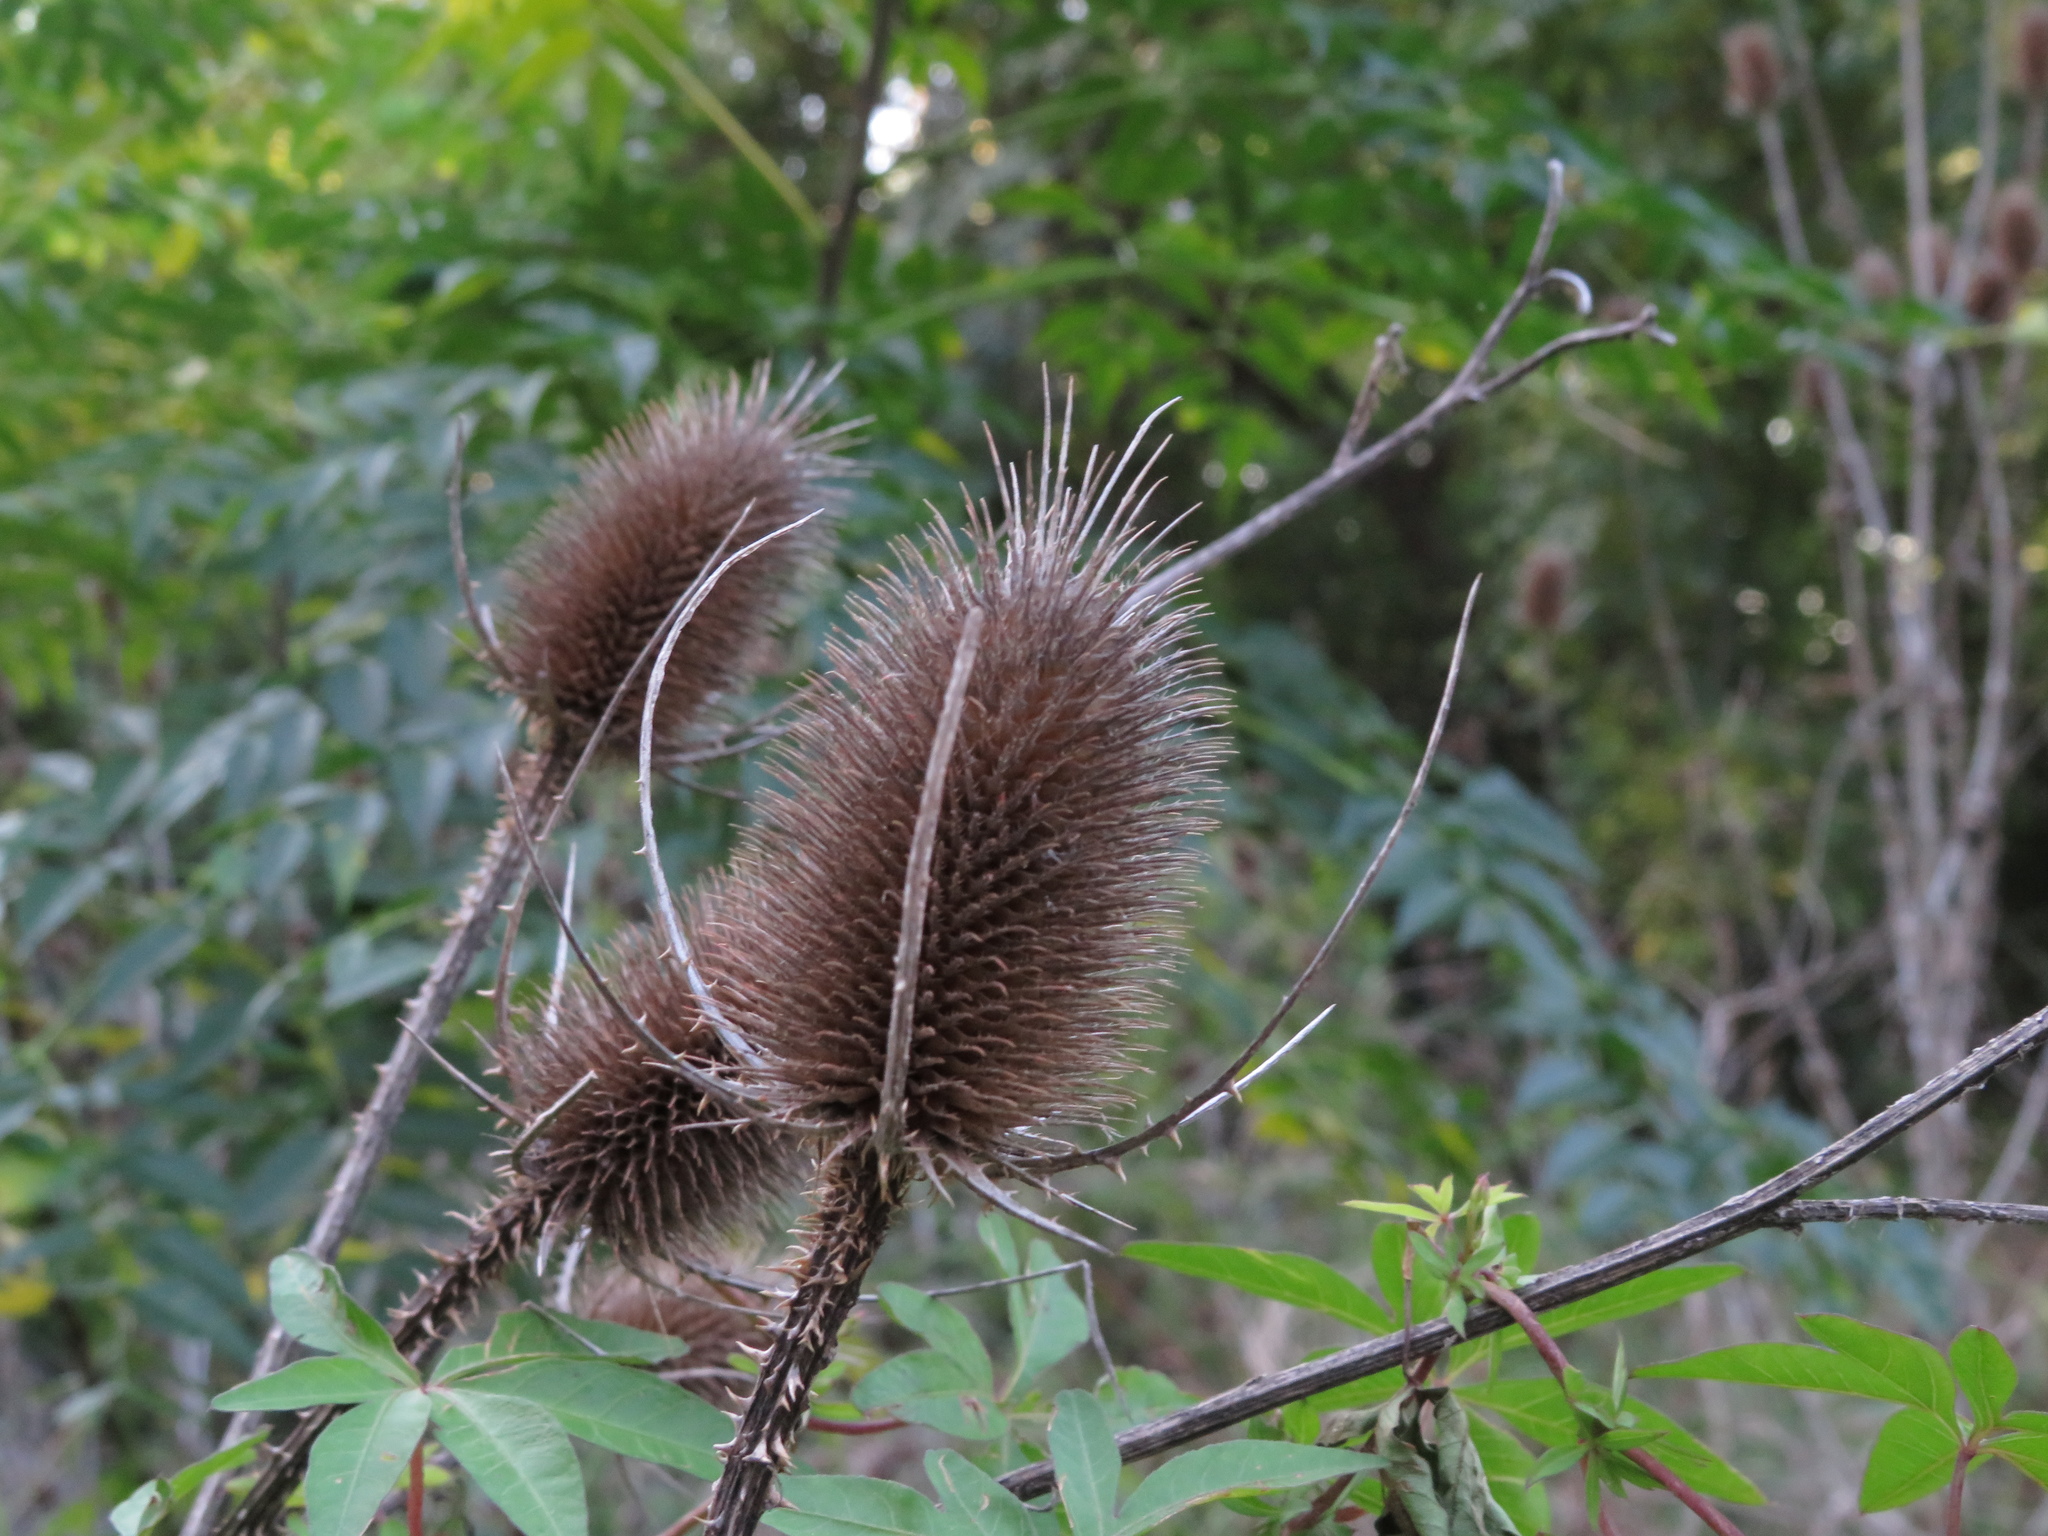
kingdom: Plantae
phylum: Tracheophyta
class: Magnoliopsida
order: Dipsacales
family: Caprifoliaceae
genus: Dipsacus
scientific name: Dipsacus fullonum
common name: Teasel
